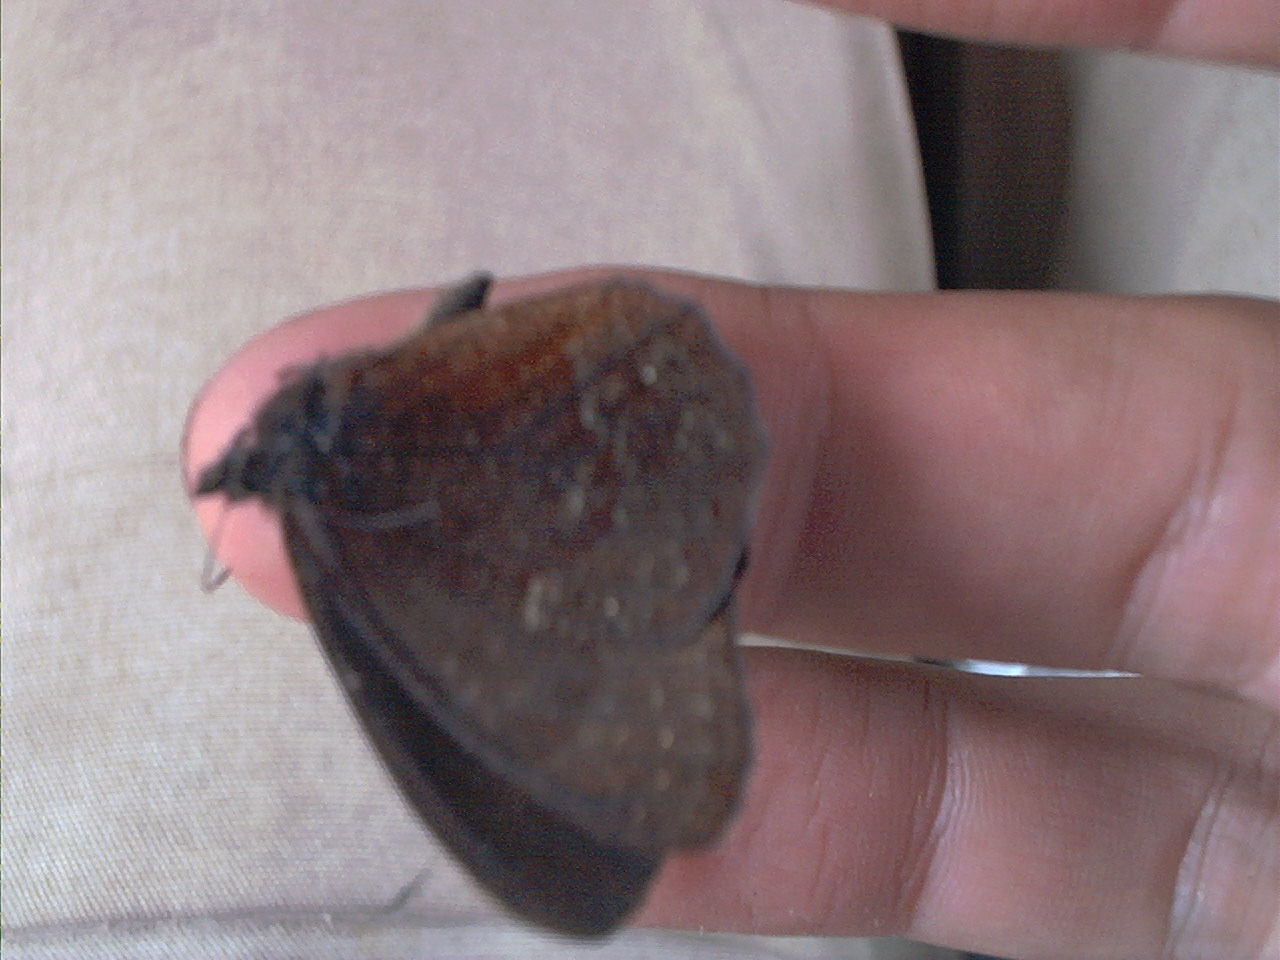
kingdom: Animalia
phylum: Arthropoda
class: Insecta
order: Lepidoptera
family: Nymphalidae
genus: Pedaliodes
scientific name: Pedaliodes montagna
